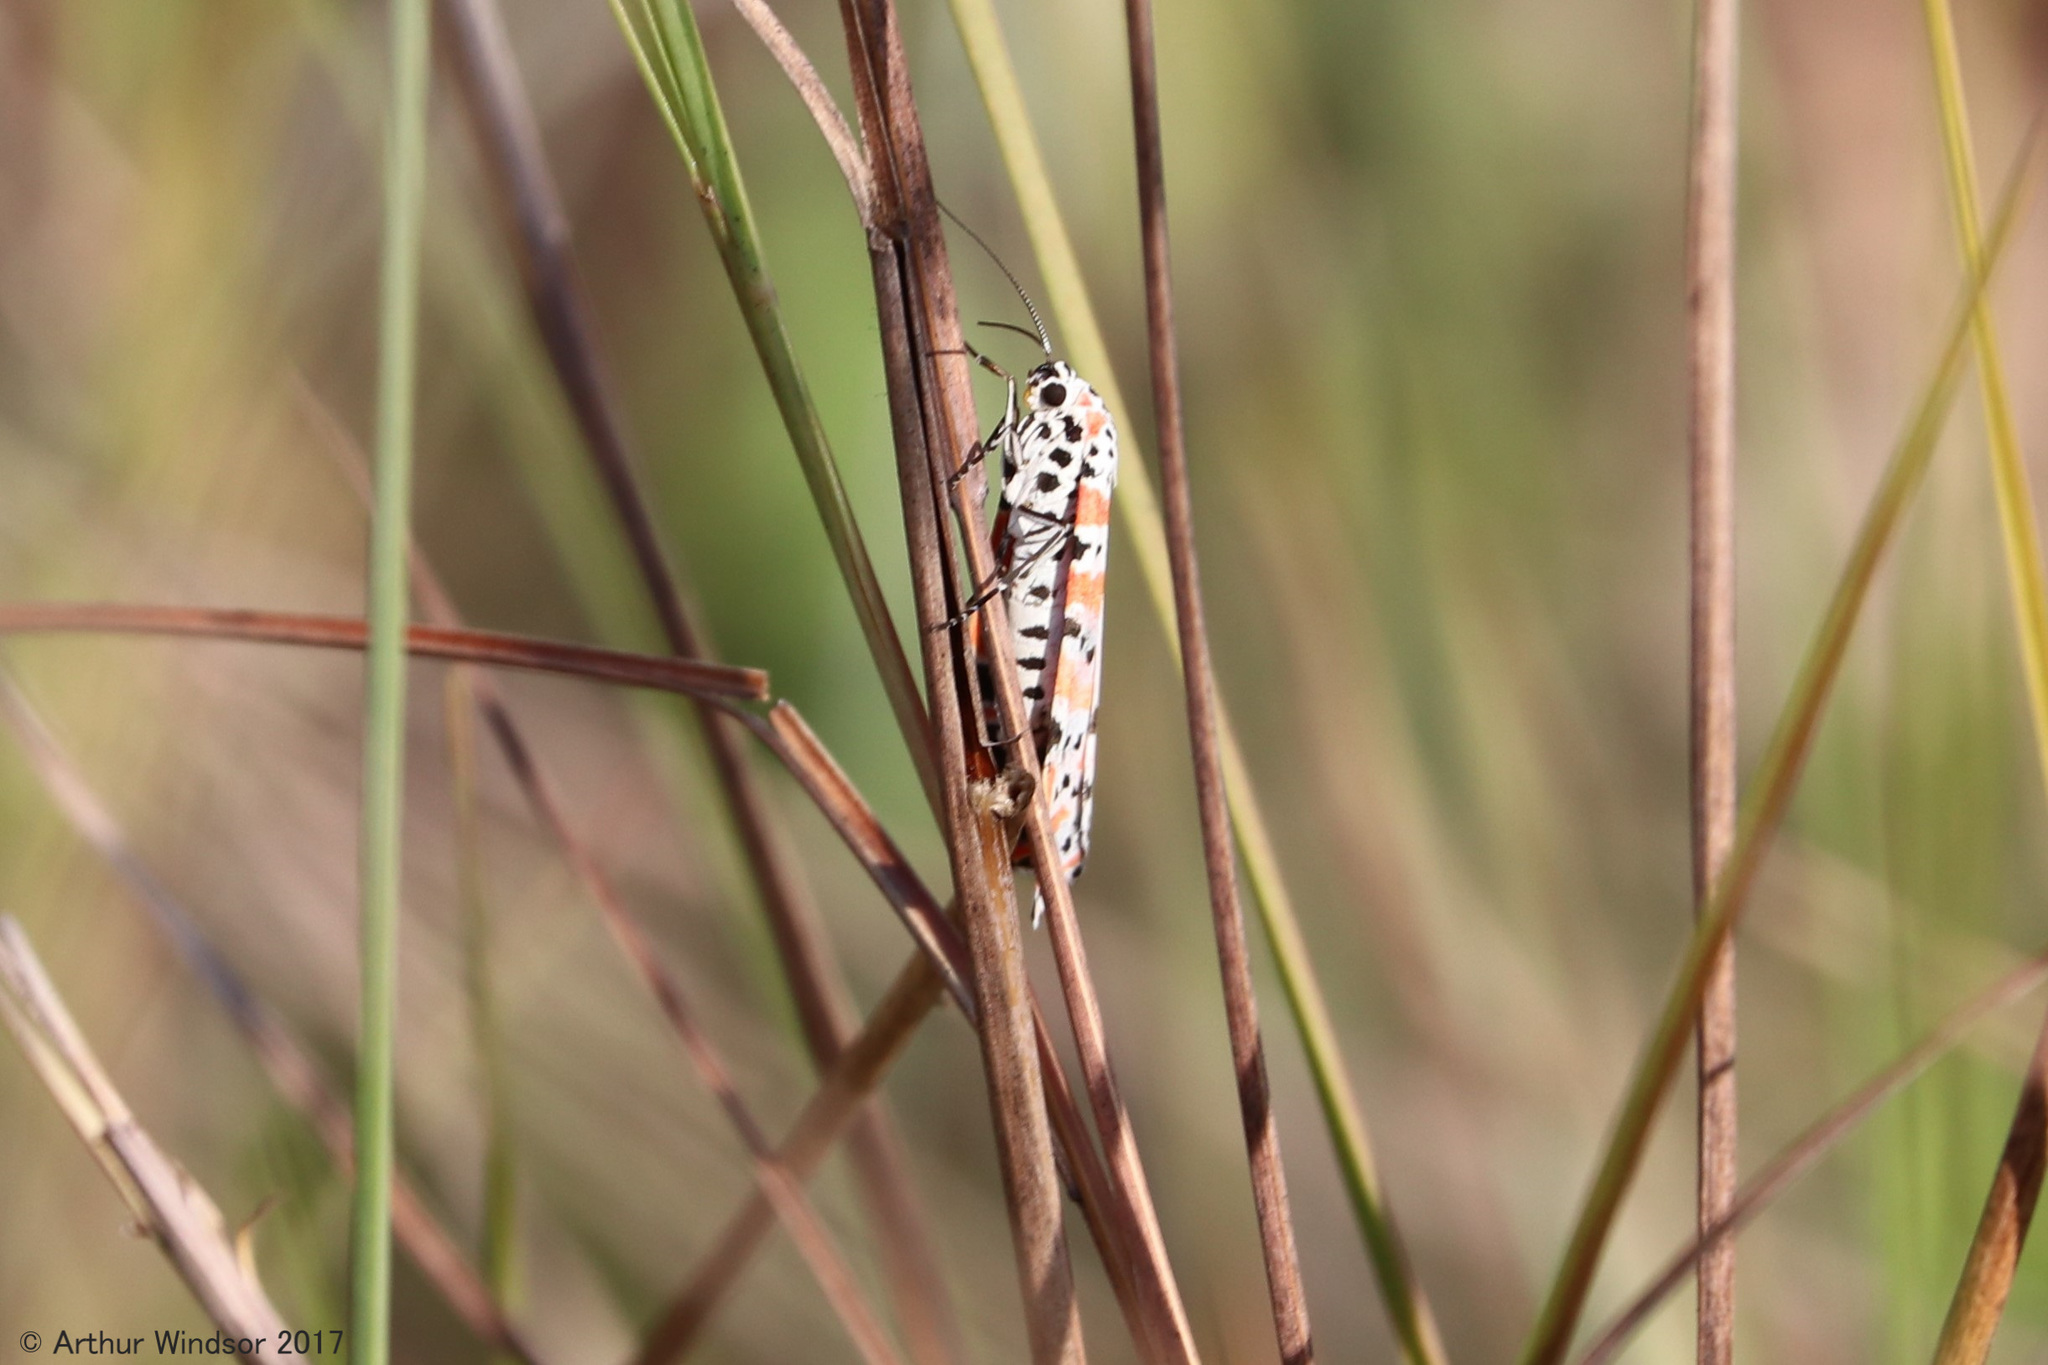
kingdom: Animalia
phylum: Arthropoda
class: Insecta
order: Lepidoptera
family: Erebidae
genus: Utetheisa
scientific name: Utetheisa ornatrix
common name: Beautiful utetheisa
